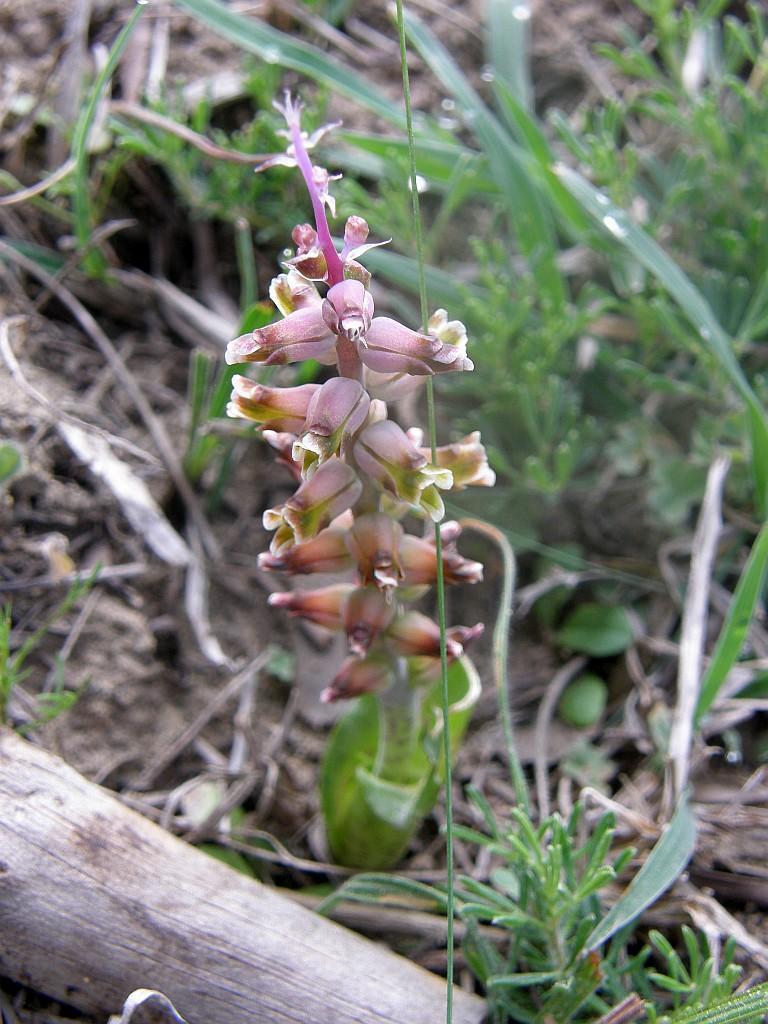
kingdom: Plantae
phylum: Tracheophyta
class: Liliopsida
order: Asparagales
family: Asparagaceae
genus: Lachenalia
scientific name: Lachenalia mutabilis
